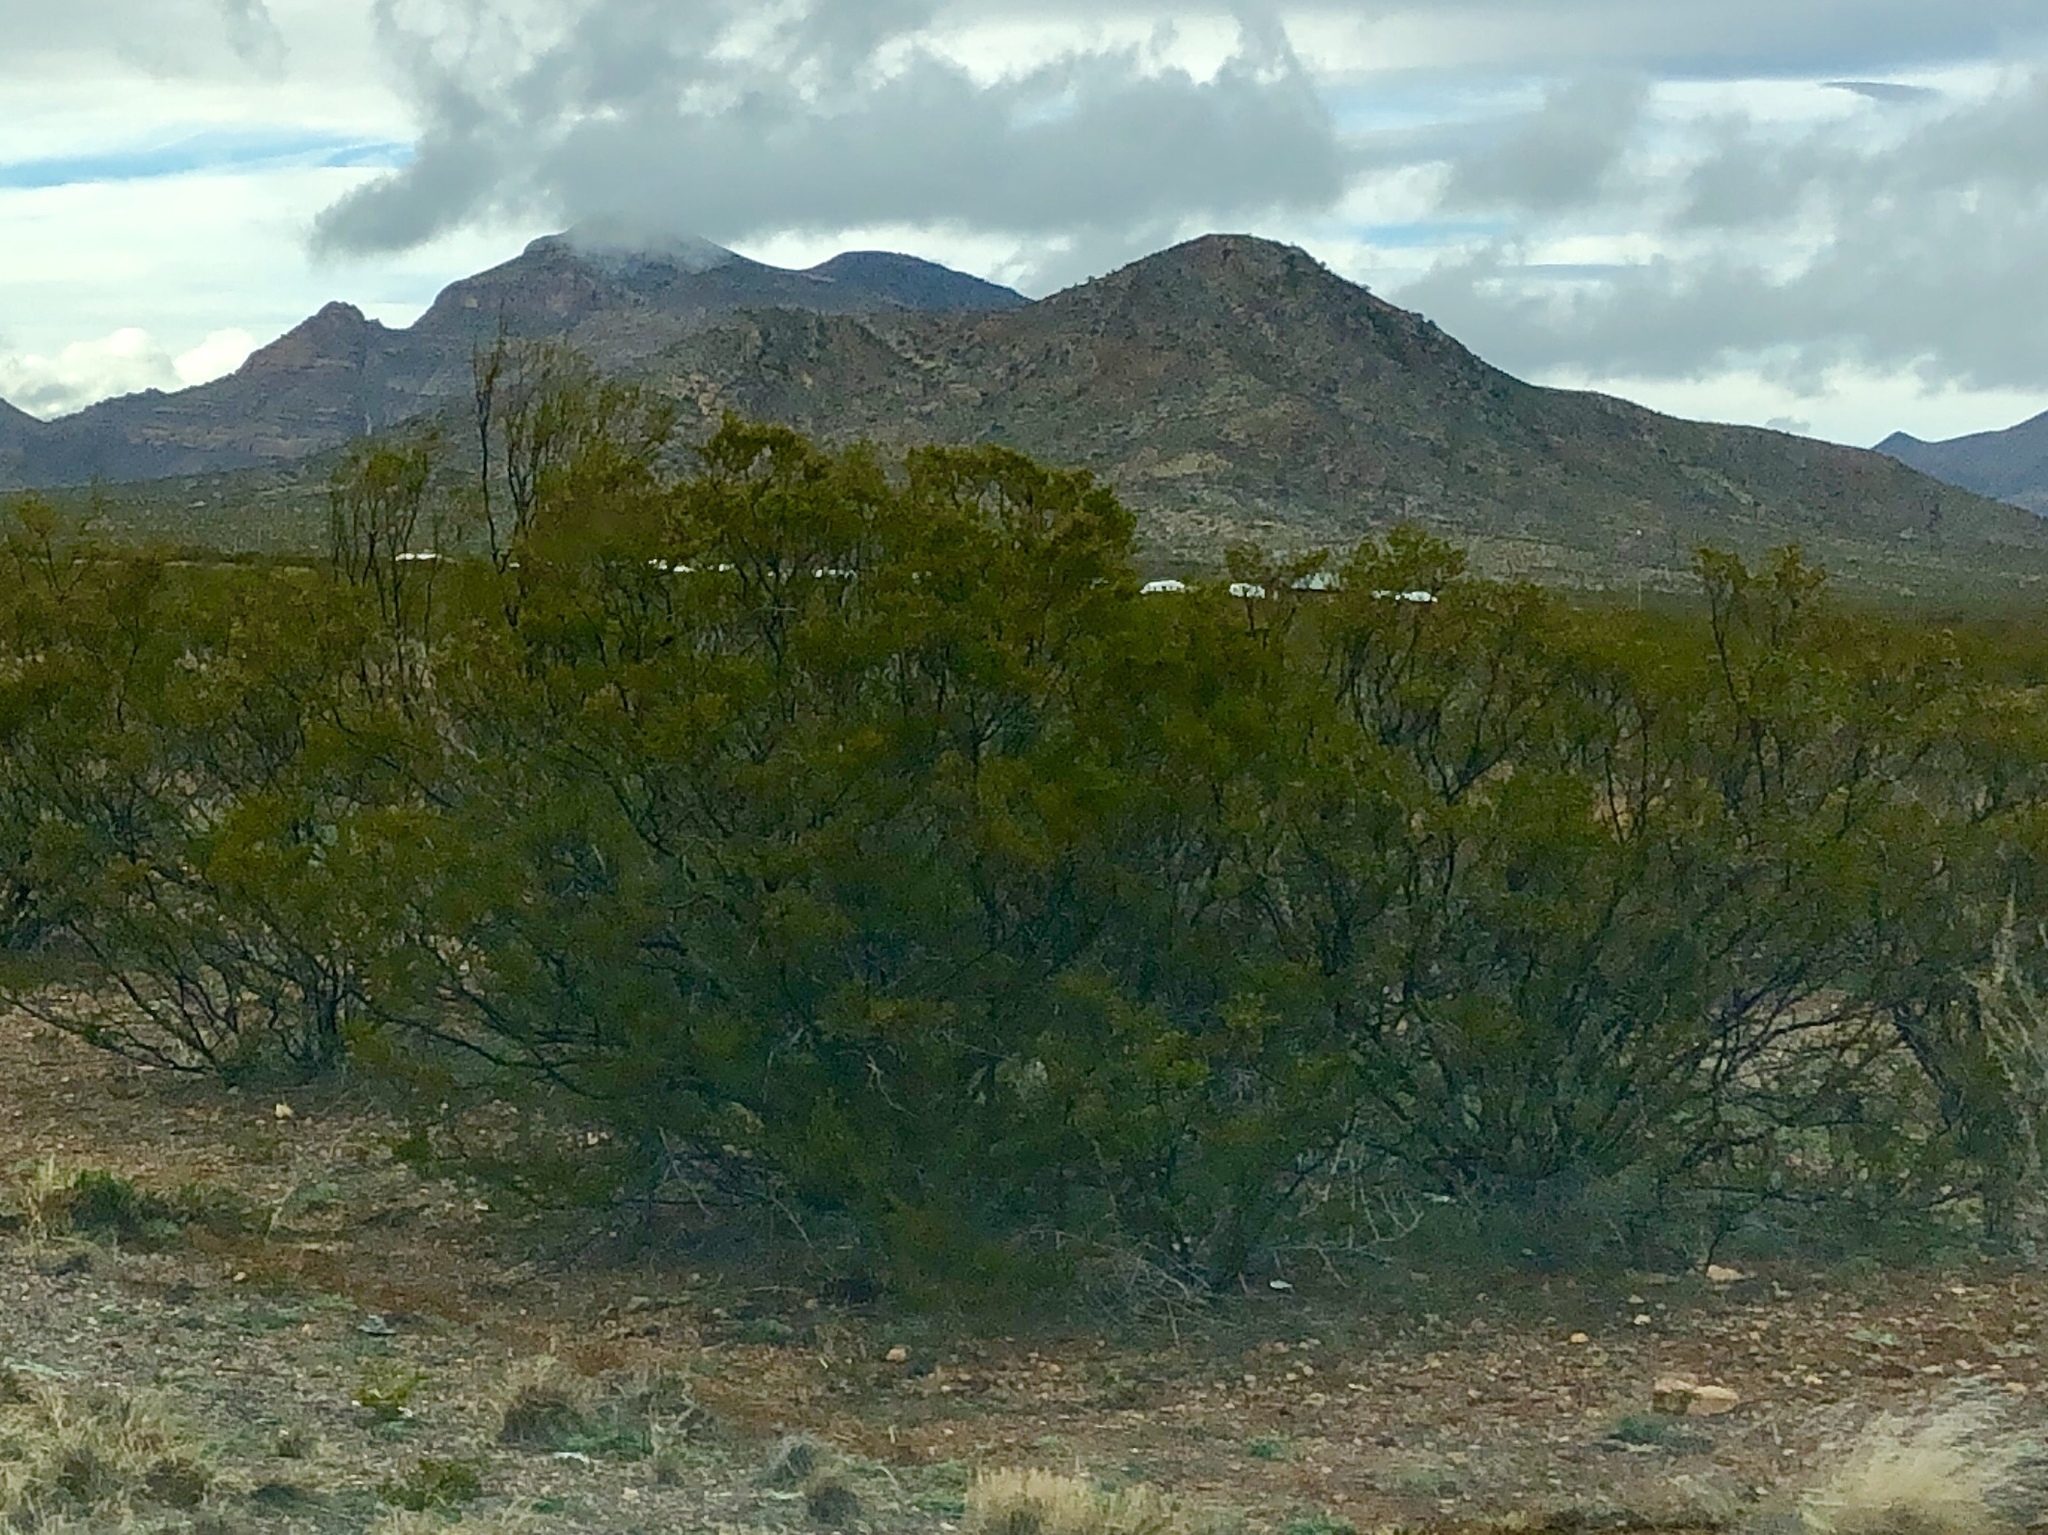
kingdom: Plantae
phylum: Tracheophyta
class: Magnoliopsida
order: Zygophyllales
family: Zygophyllaceae
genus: Larrea
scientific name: Larrea tridentata
